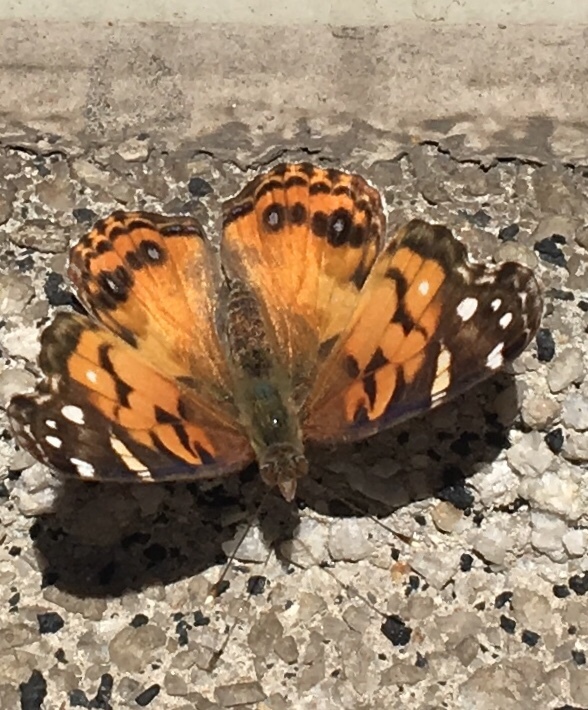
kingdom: Animalia
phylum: Arthropoda
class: Insecta
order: Lepidoptera
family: Nymphalidae
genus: Vanessa
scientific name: Vanessa virginiensis
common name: American lady
